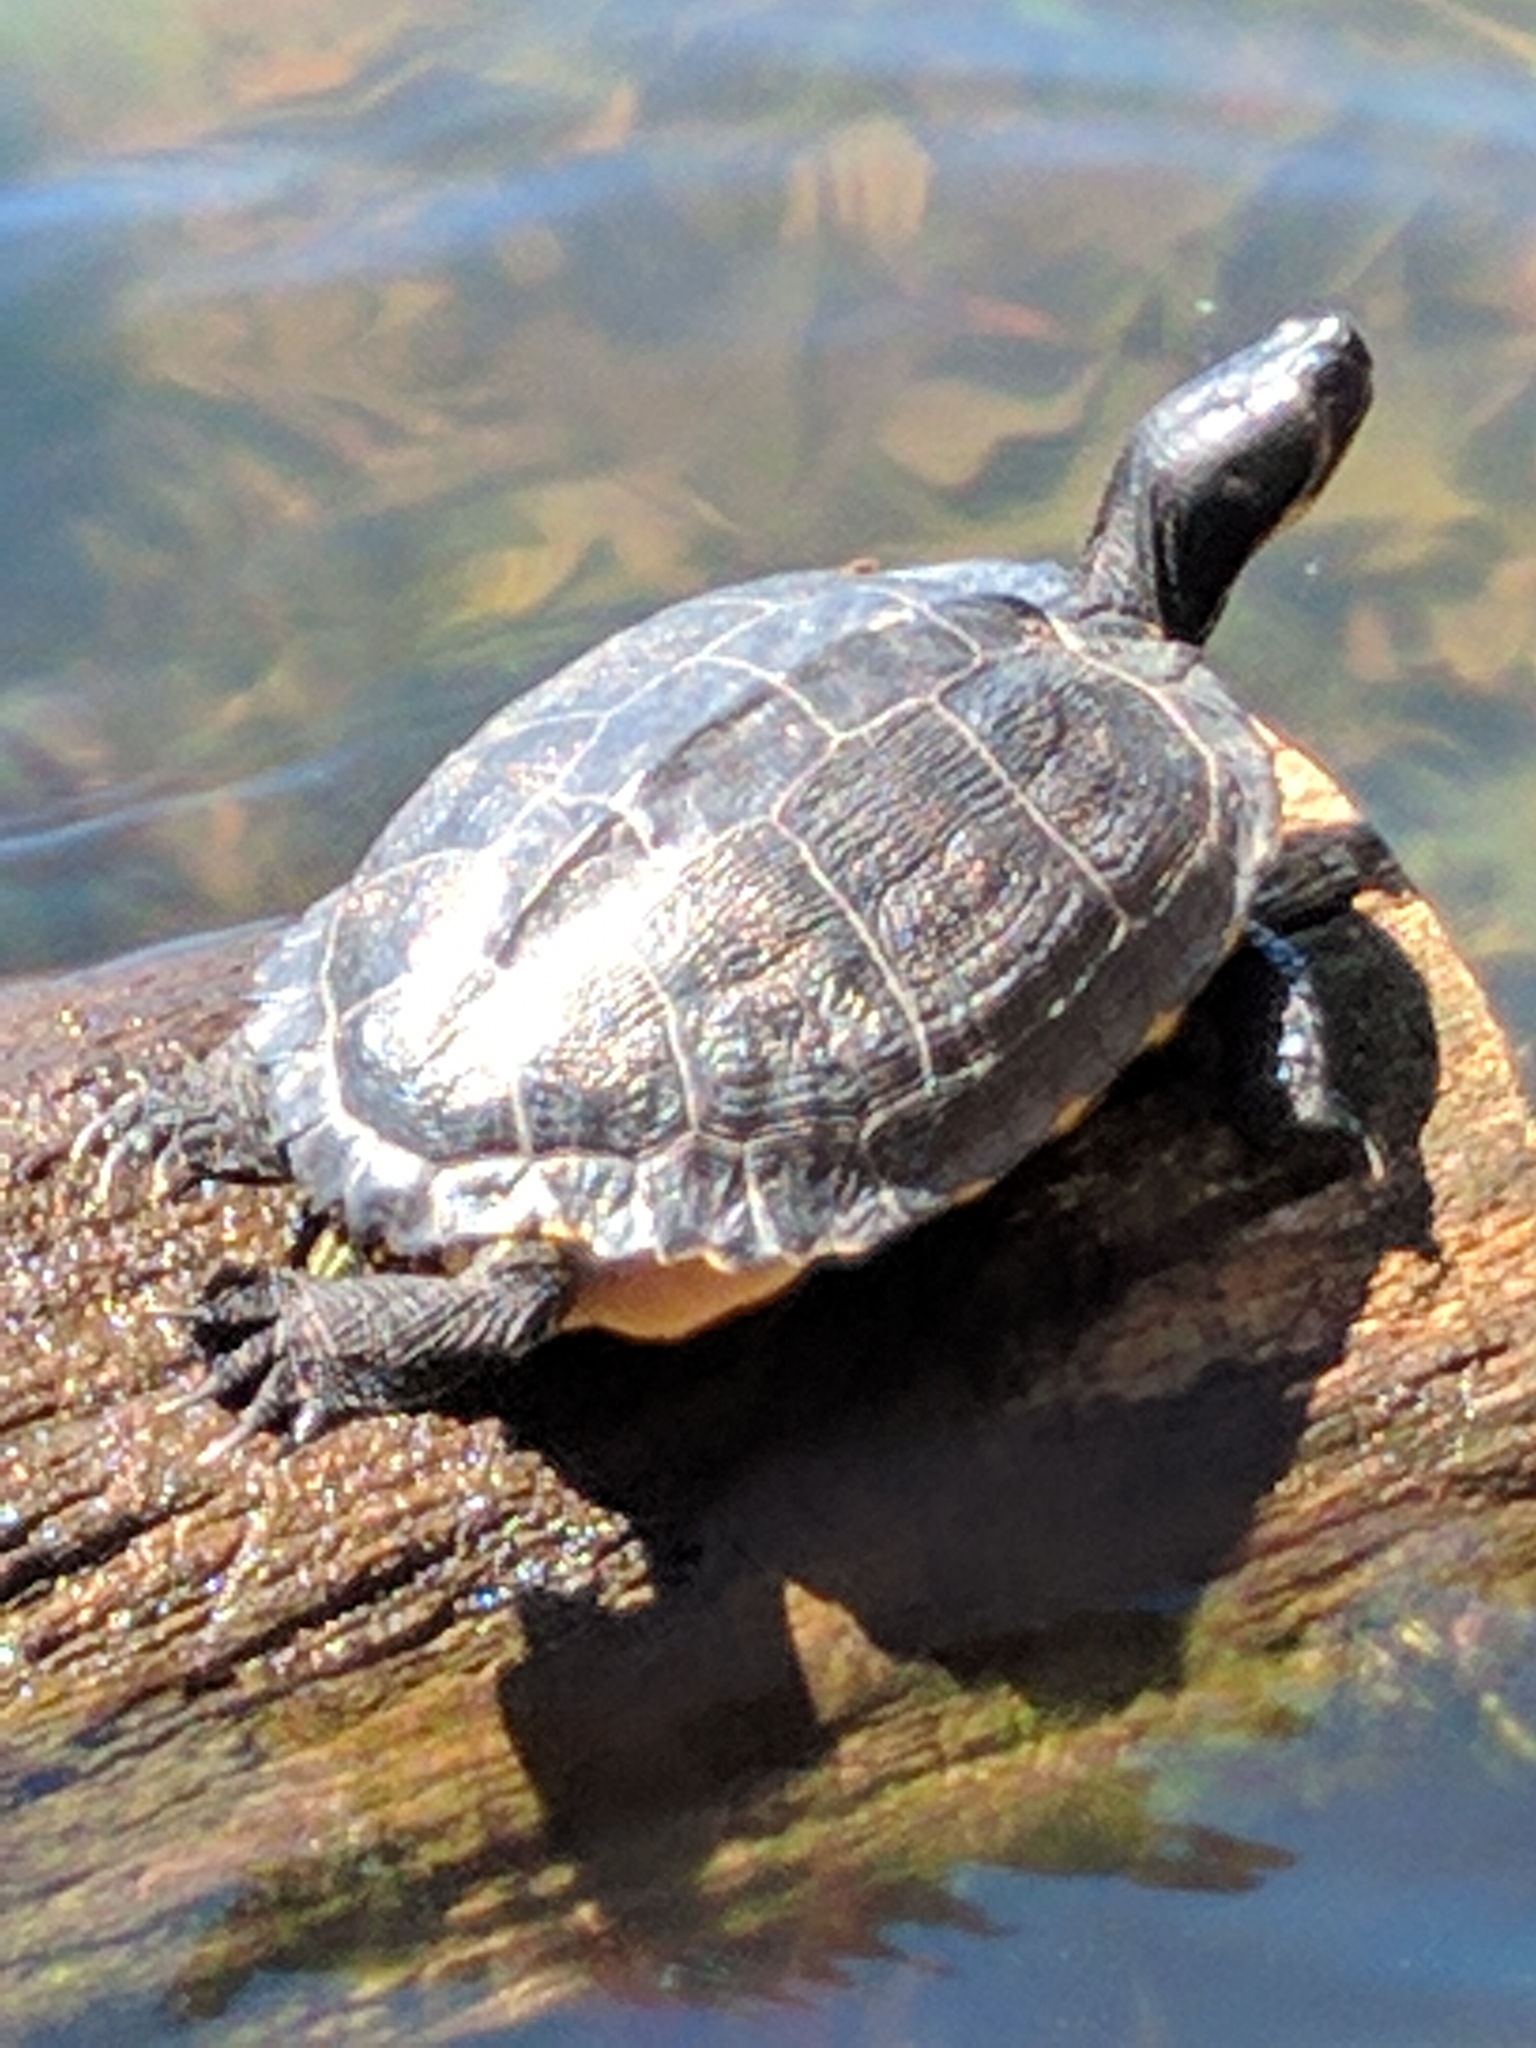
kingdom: Animalia
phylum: Chordata
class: Testudines
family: Emydidae
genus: Trachemys
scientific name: Trachemys scripta
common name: Slider
